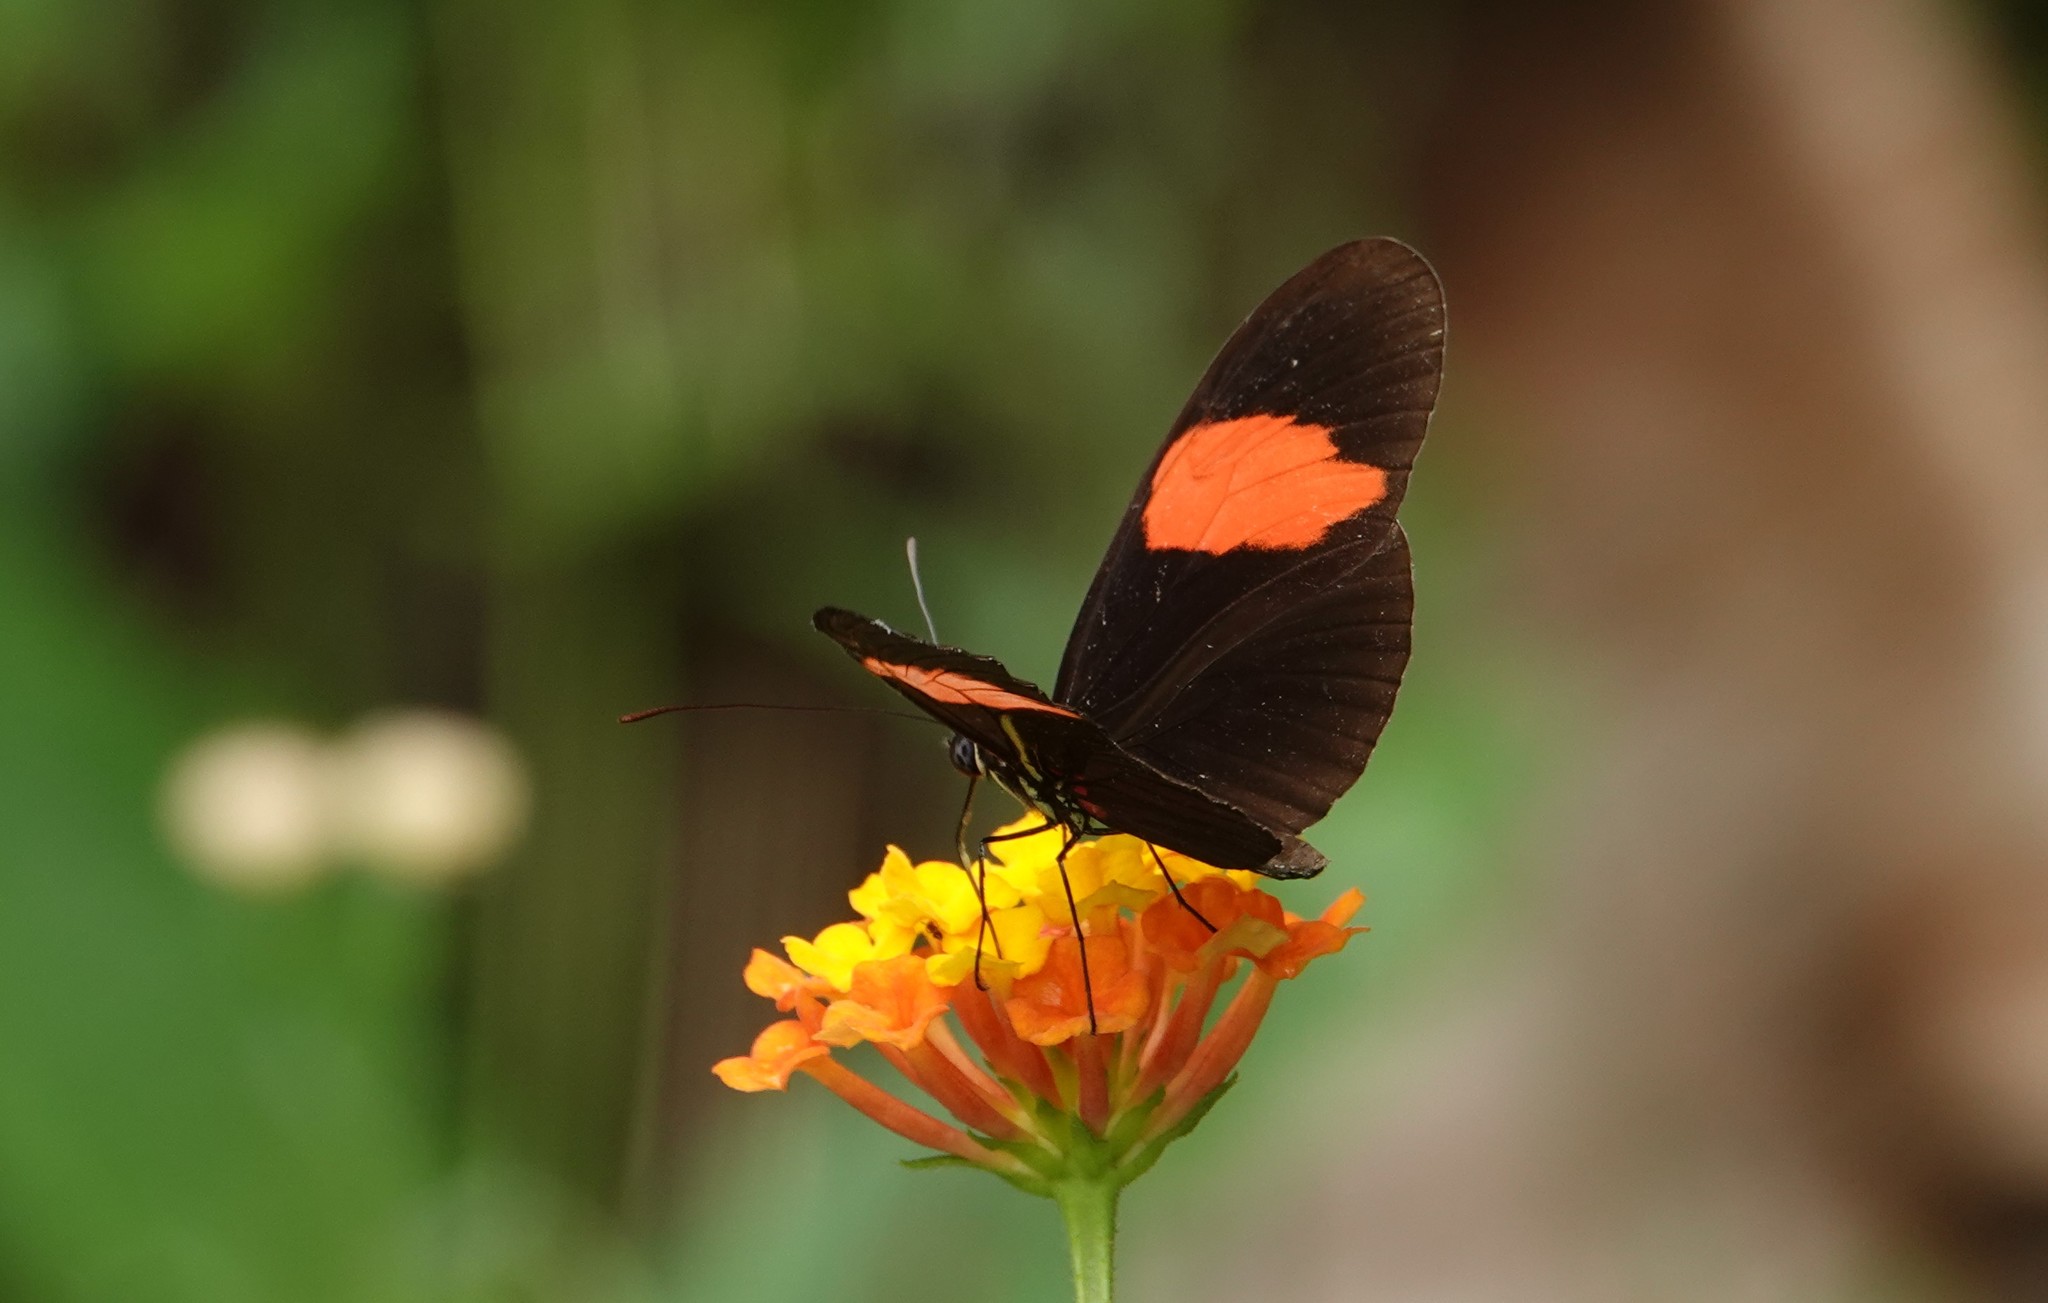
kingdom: Animalia
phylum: Arthropoda
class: Insecta
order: Lepidoptera
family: Nymphalidae
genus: Heliconius
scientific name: Heliconius melpomene
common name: Postman
